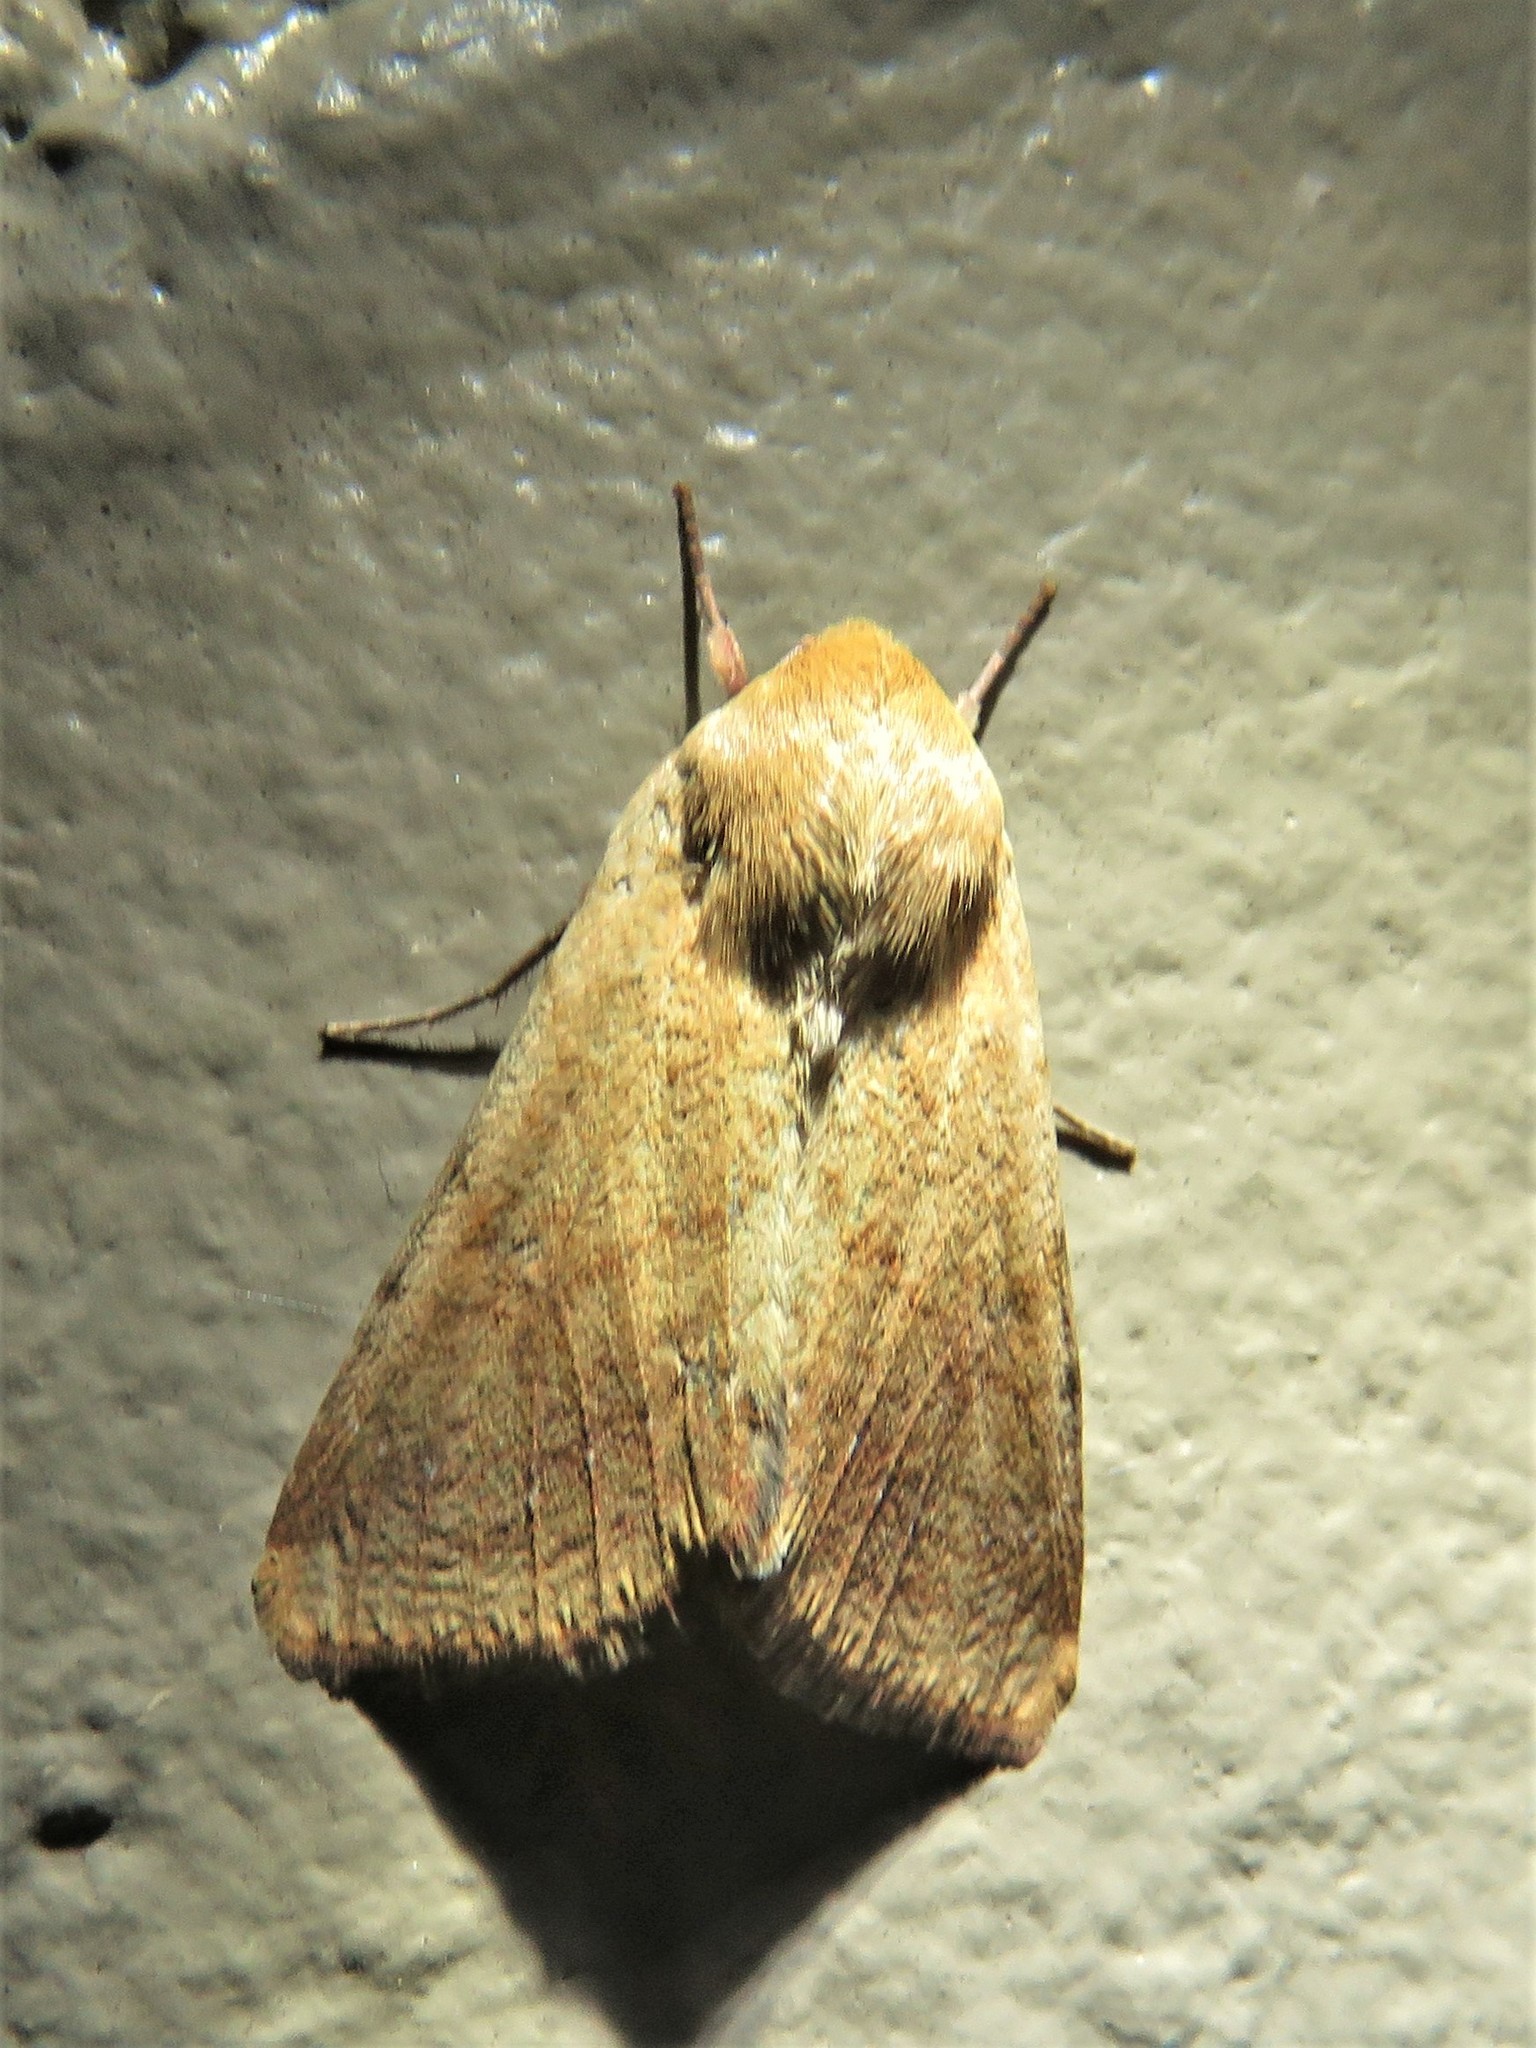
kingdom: Animalia
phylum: Arthropoda
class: Insecta
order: Lepidoptera
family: Noctuidae
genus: Helicoverpa
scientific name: Helicoverpa zea
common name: Bollworm
